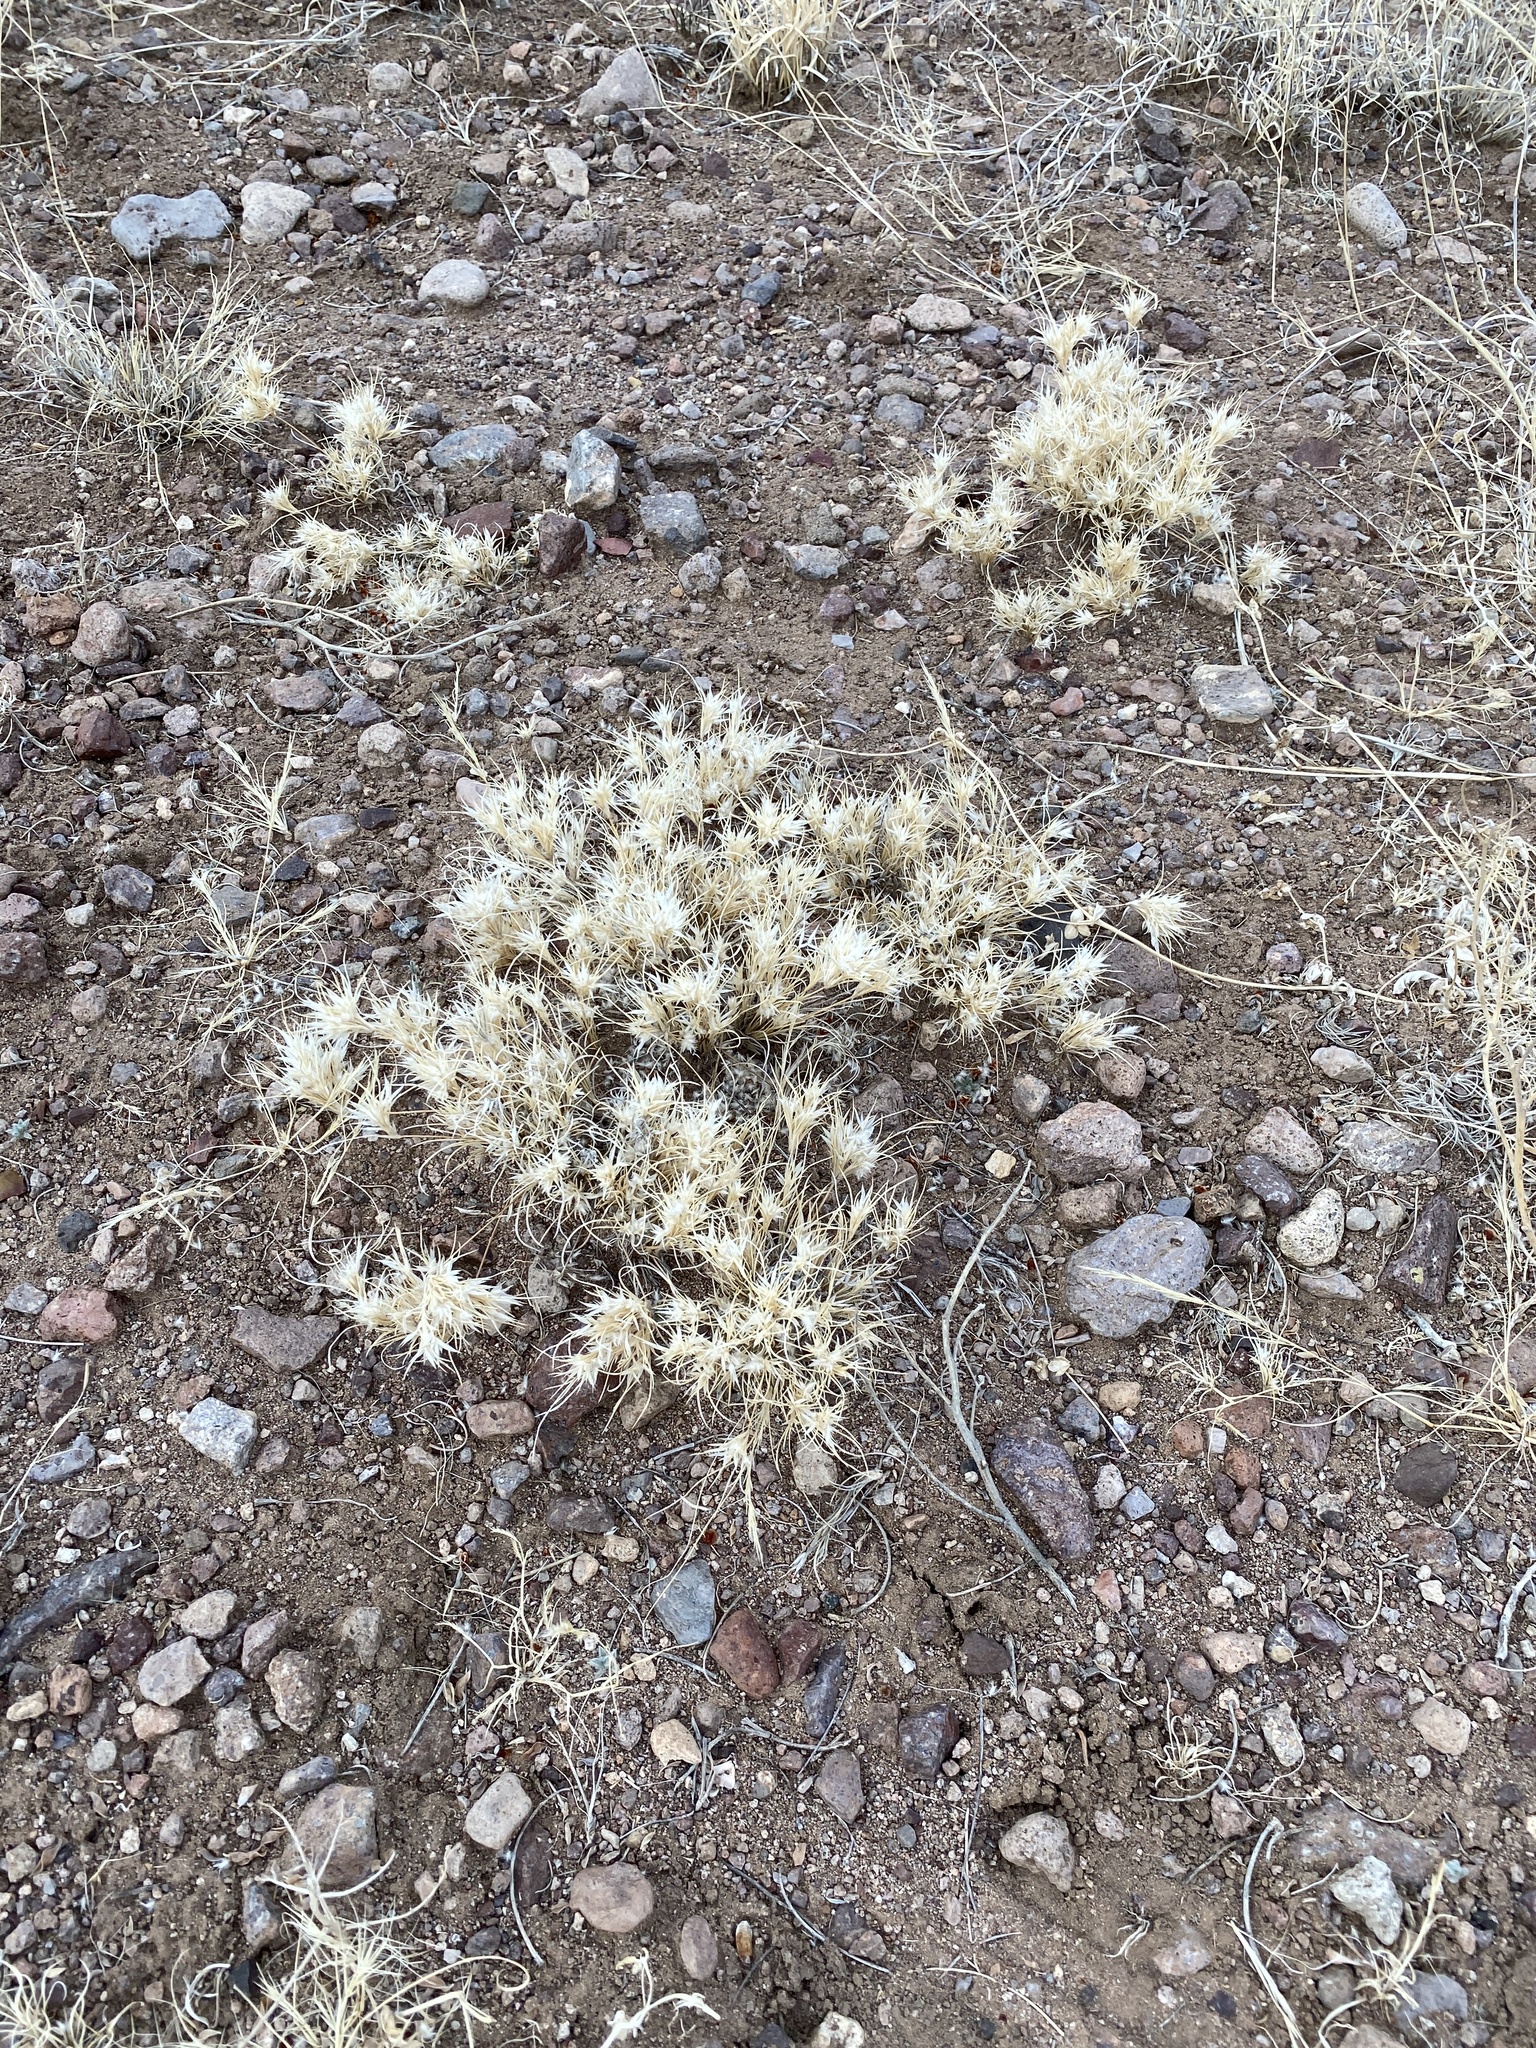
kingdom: Plantae
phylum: Tracheophyta
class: Liliopsida
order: Poales
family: Poaceae
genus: Dasyochloa
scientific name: Dasyochloa pulchella
